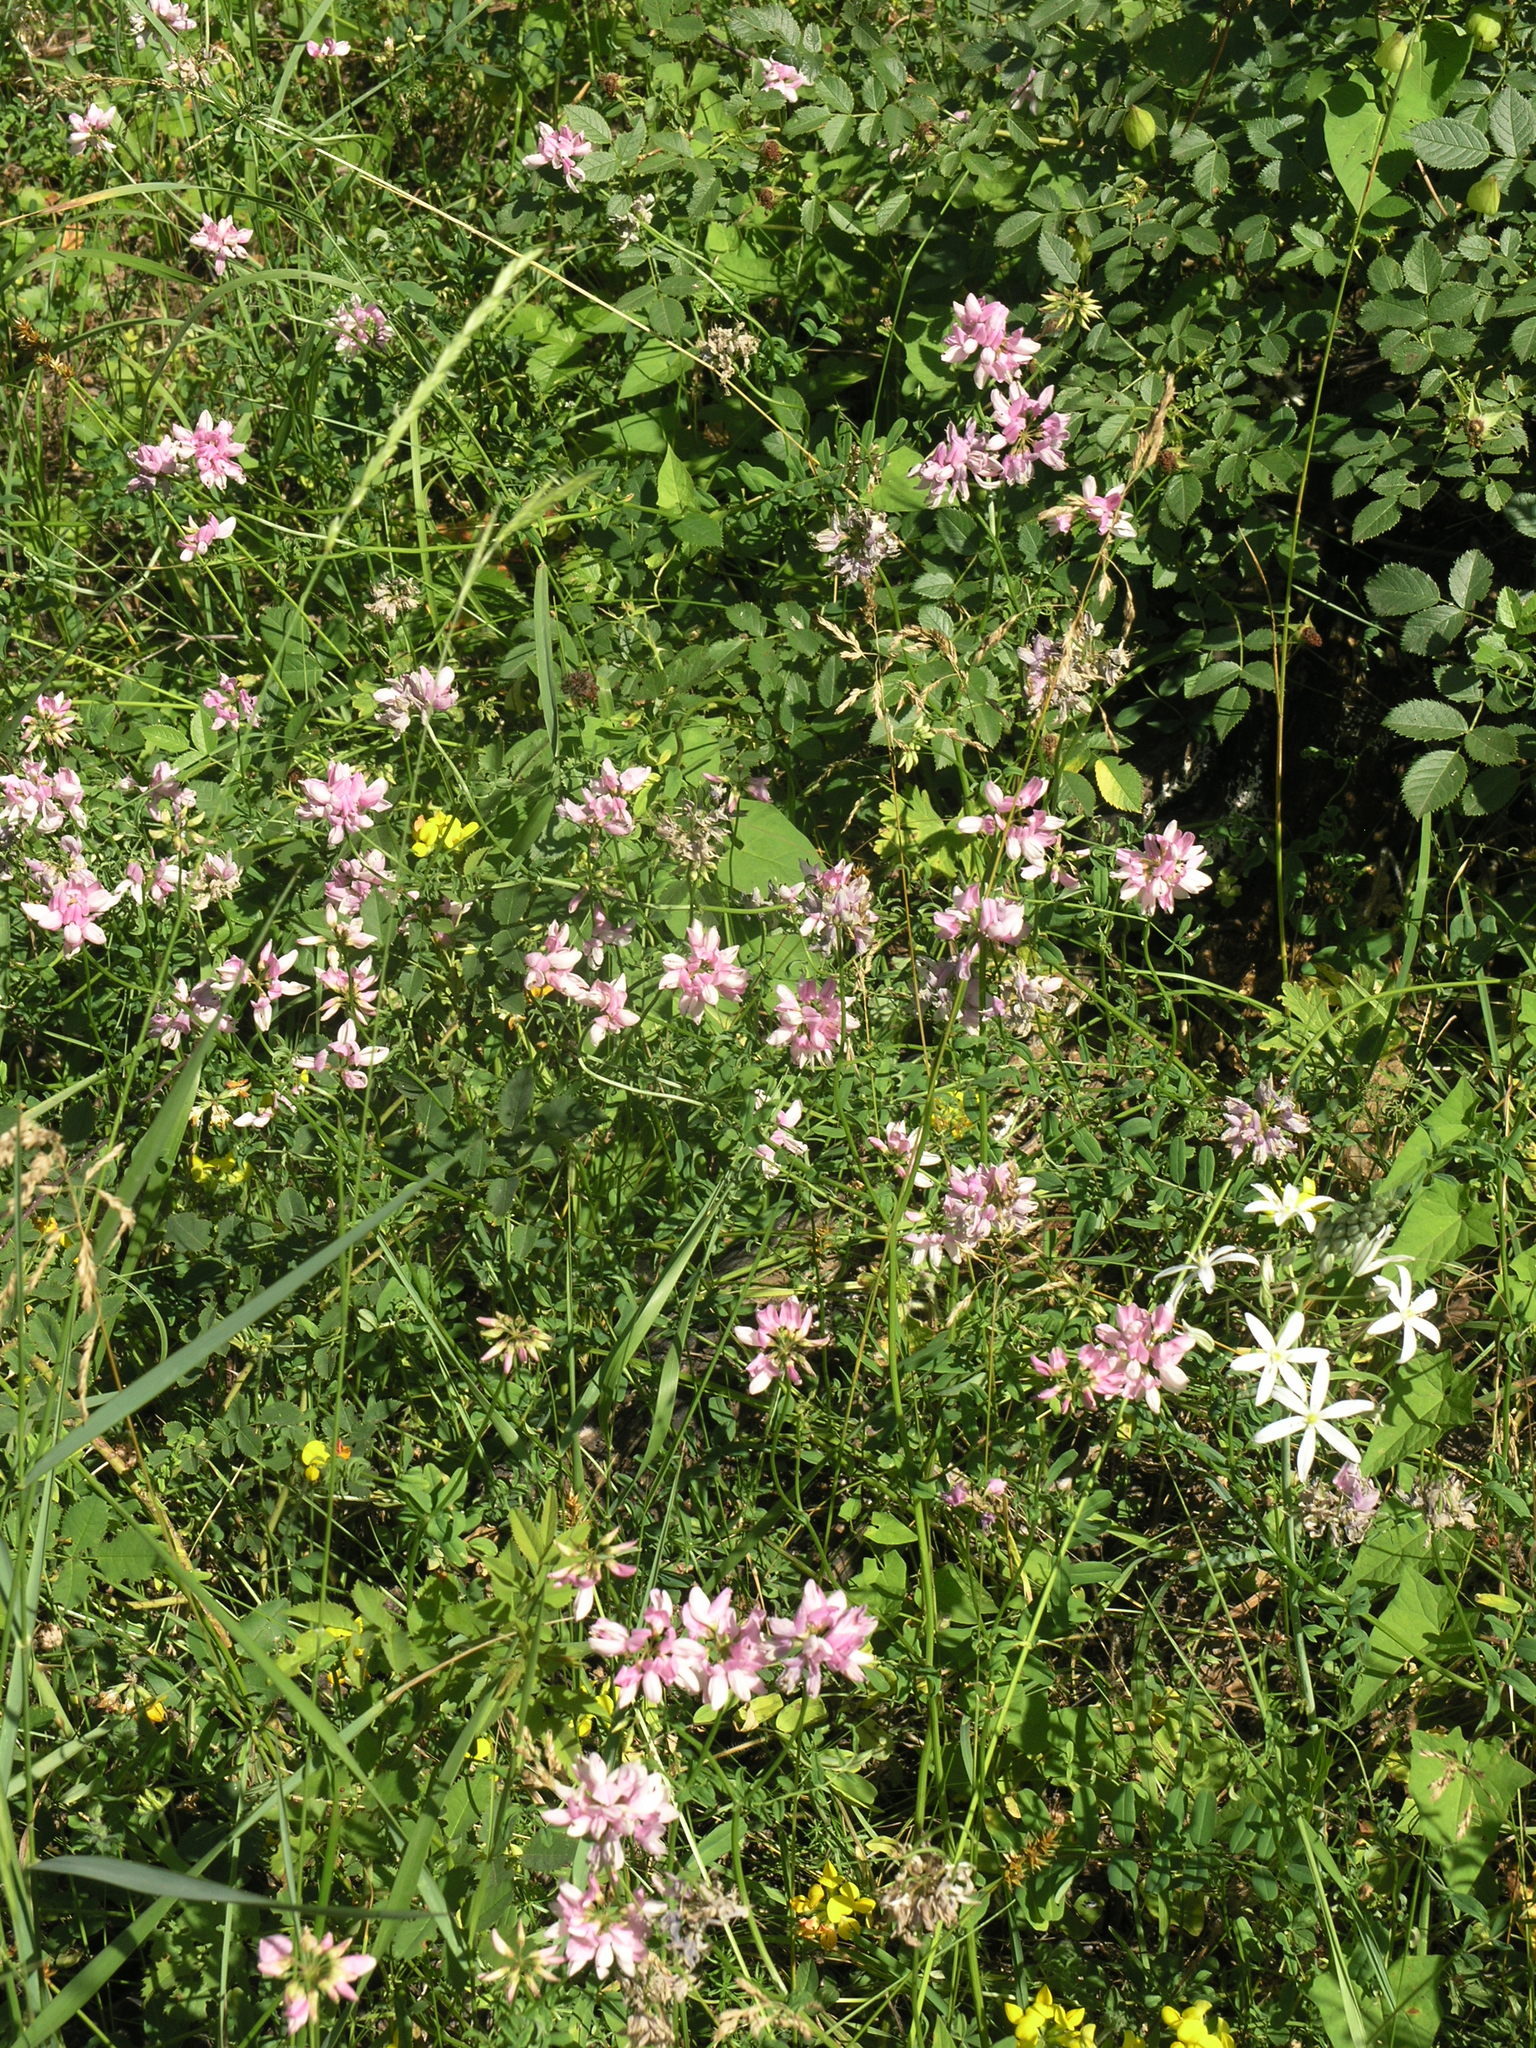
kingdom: Plantae
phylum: Tracheophyta
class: Magnoliopsida
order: Fabales
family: Fabaceae
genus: Coronilla
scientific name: Coronilla varia
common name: Crownvetch
